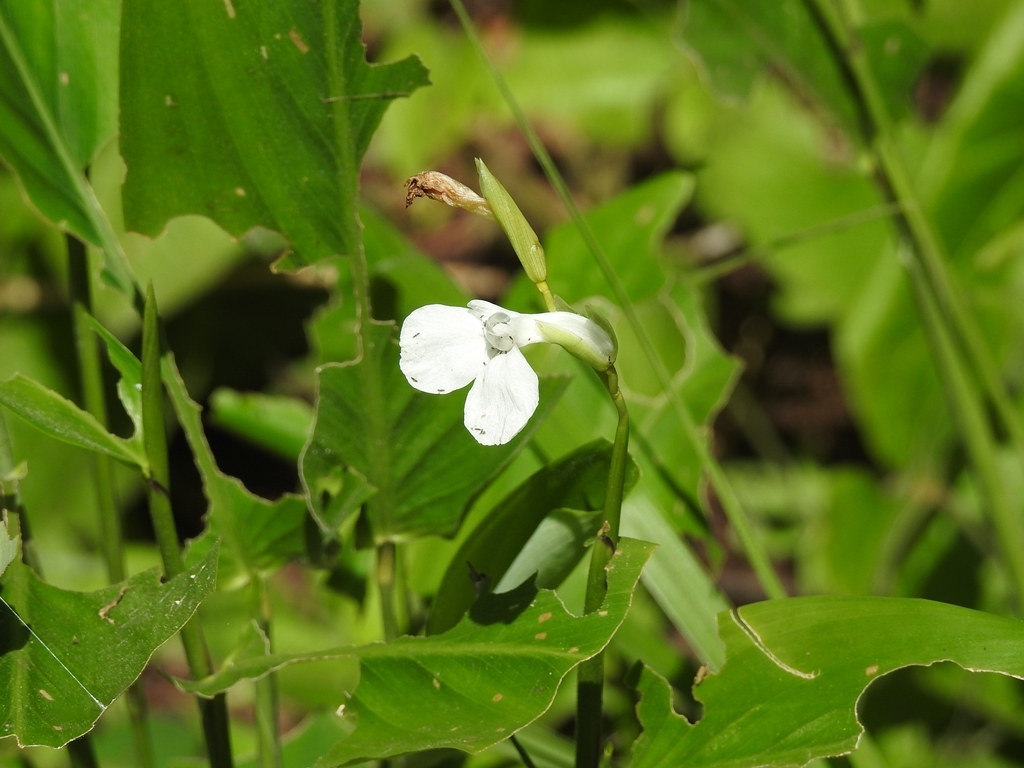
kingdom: Plantae
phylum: Tracheophyta
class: Liliopsida
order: Zingiberales
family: Marantaceae
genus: Maranta
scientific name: Maranta arundinacea
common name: Arrowroot
